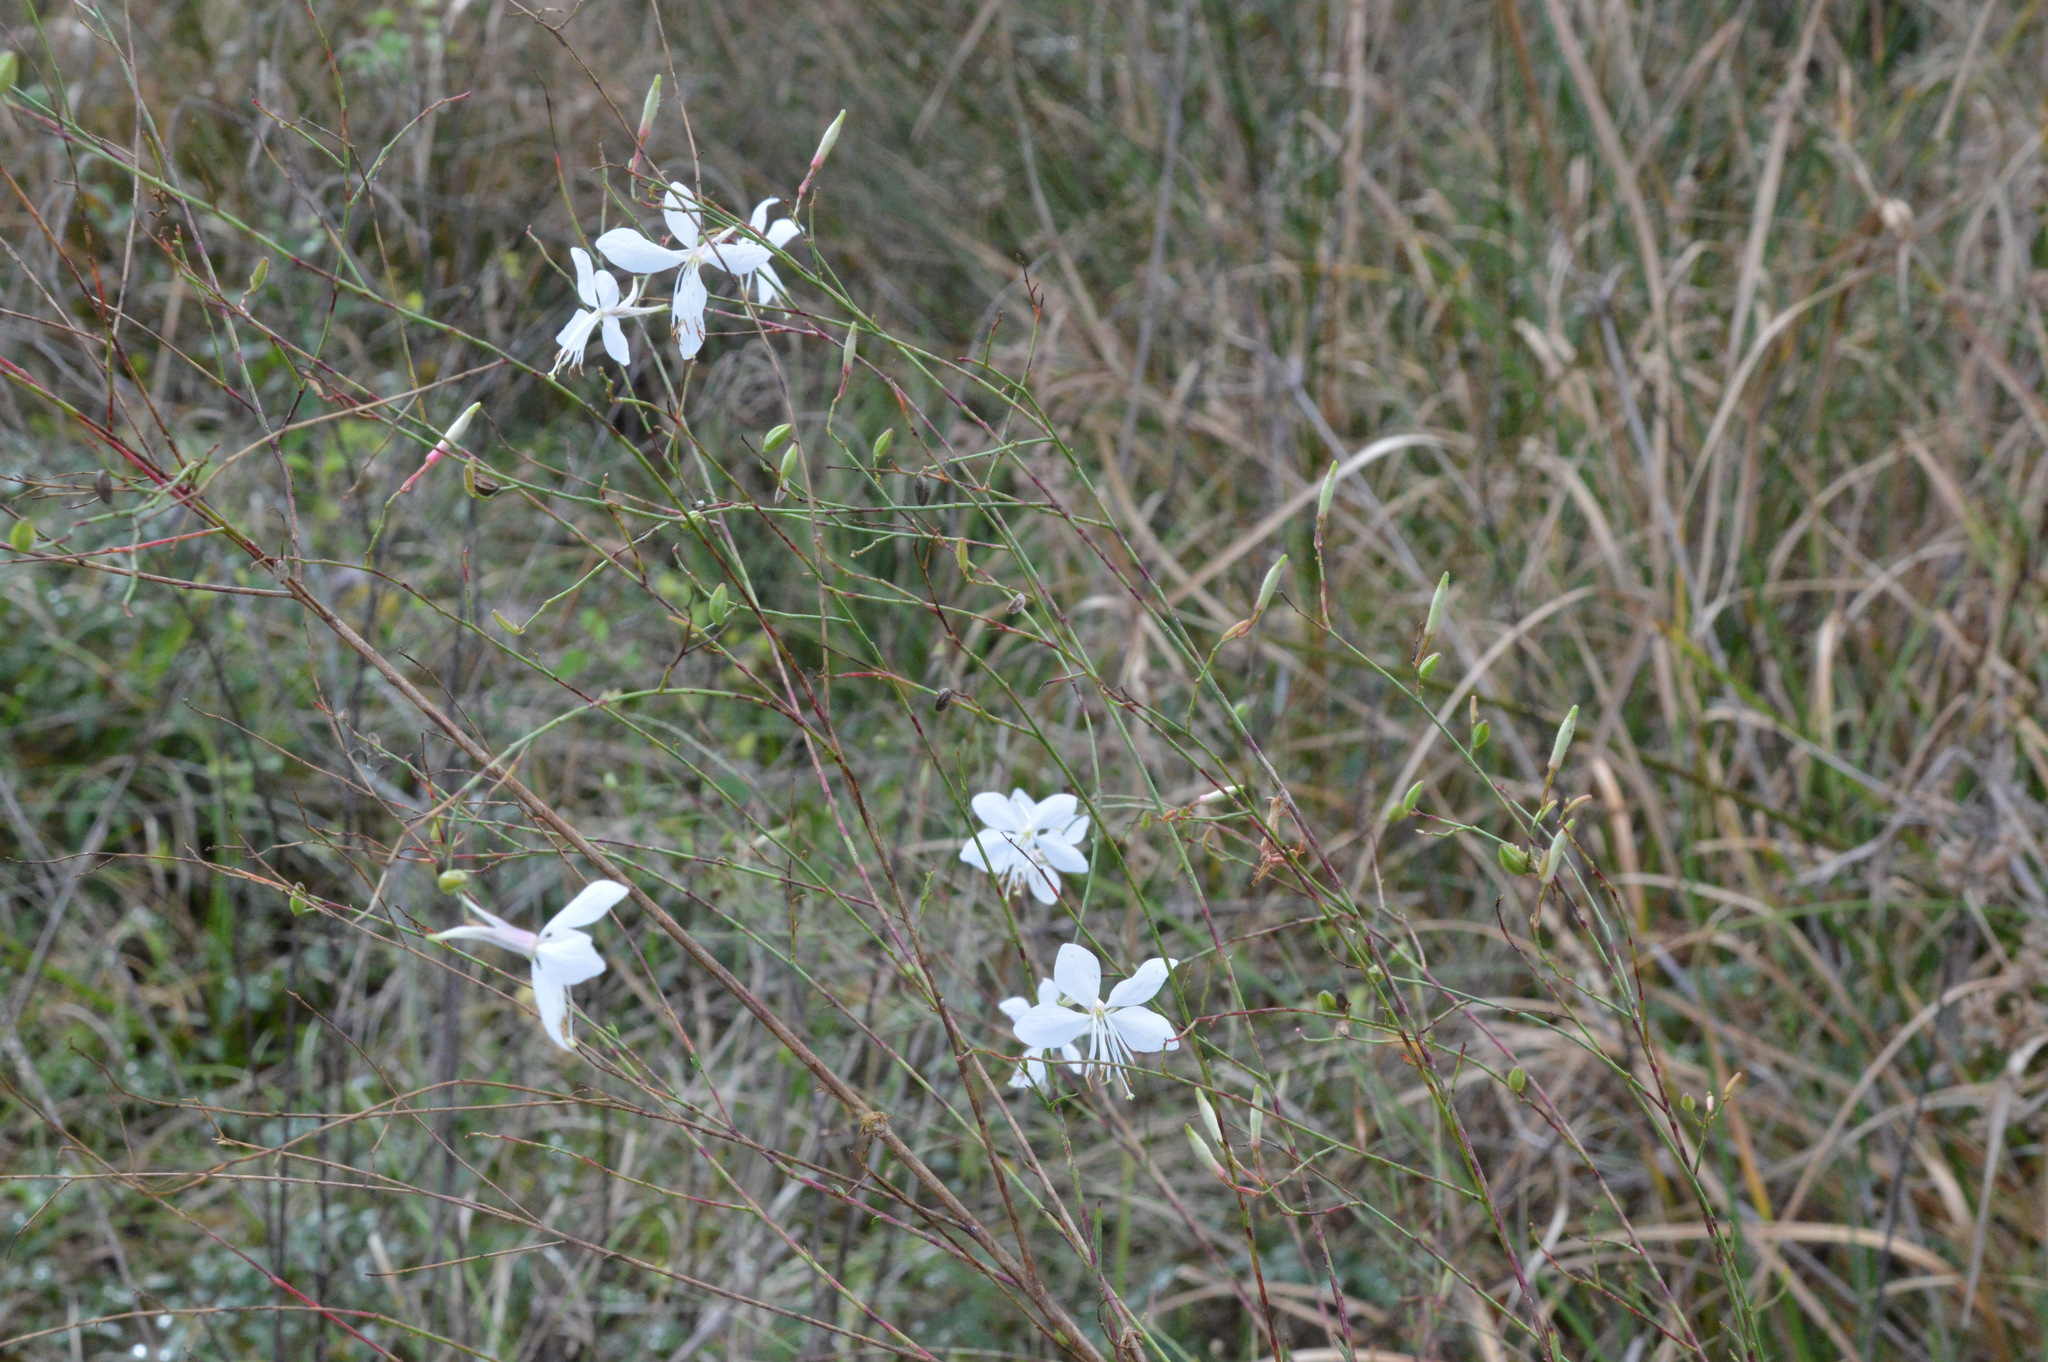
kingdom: Plantae
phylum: Tracheophyta
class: Magnoliopsida
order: Myrtales
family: Onagraceae
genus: Oenothera
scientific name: Oenothera lindheimeri
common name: Lindheimer's beeblossom
